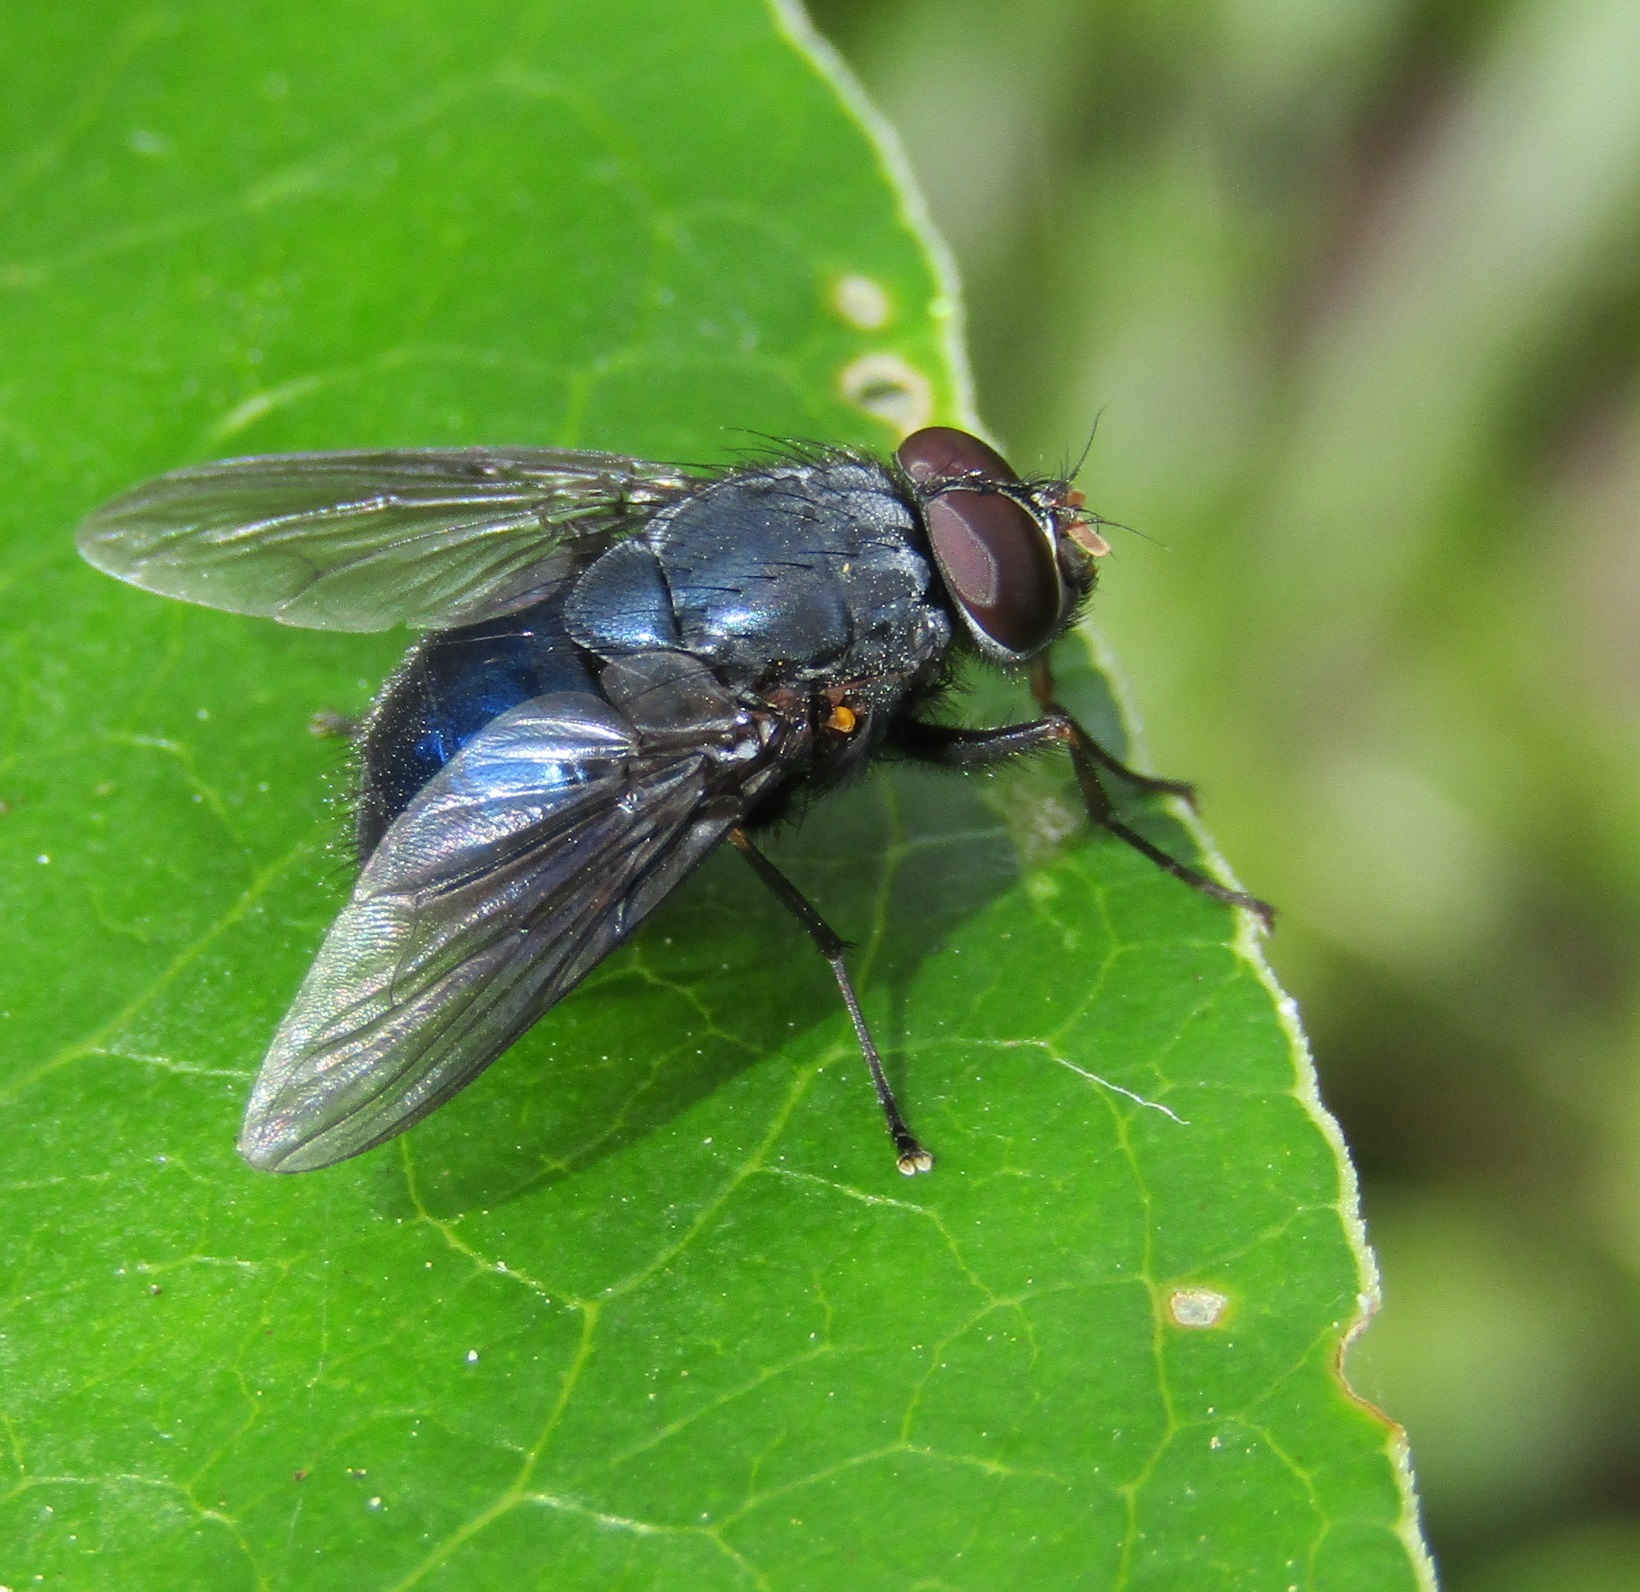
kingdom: Animalia
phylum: Arthropoda
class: Insecta
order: Diptera
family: Muscidae
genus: Calliphoroides
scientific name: Calliphoroides antennatis
